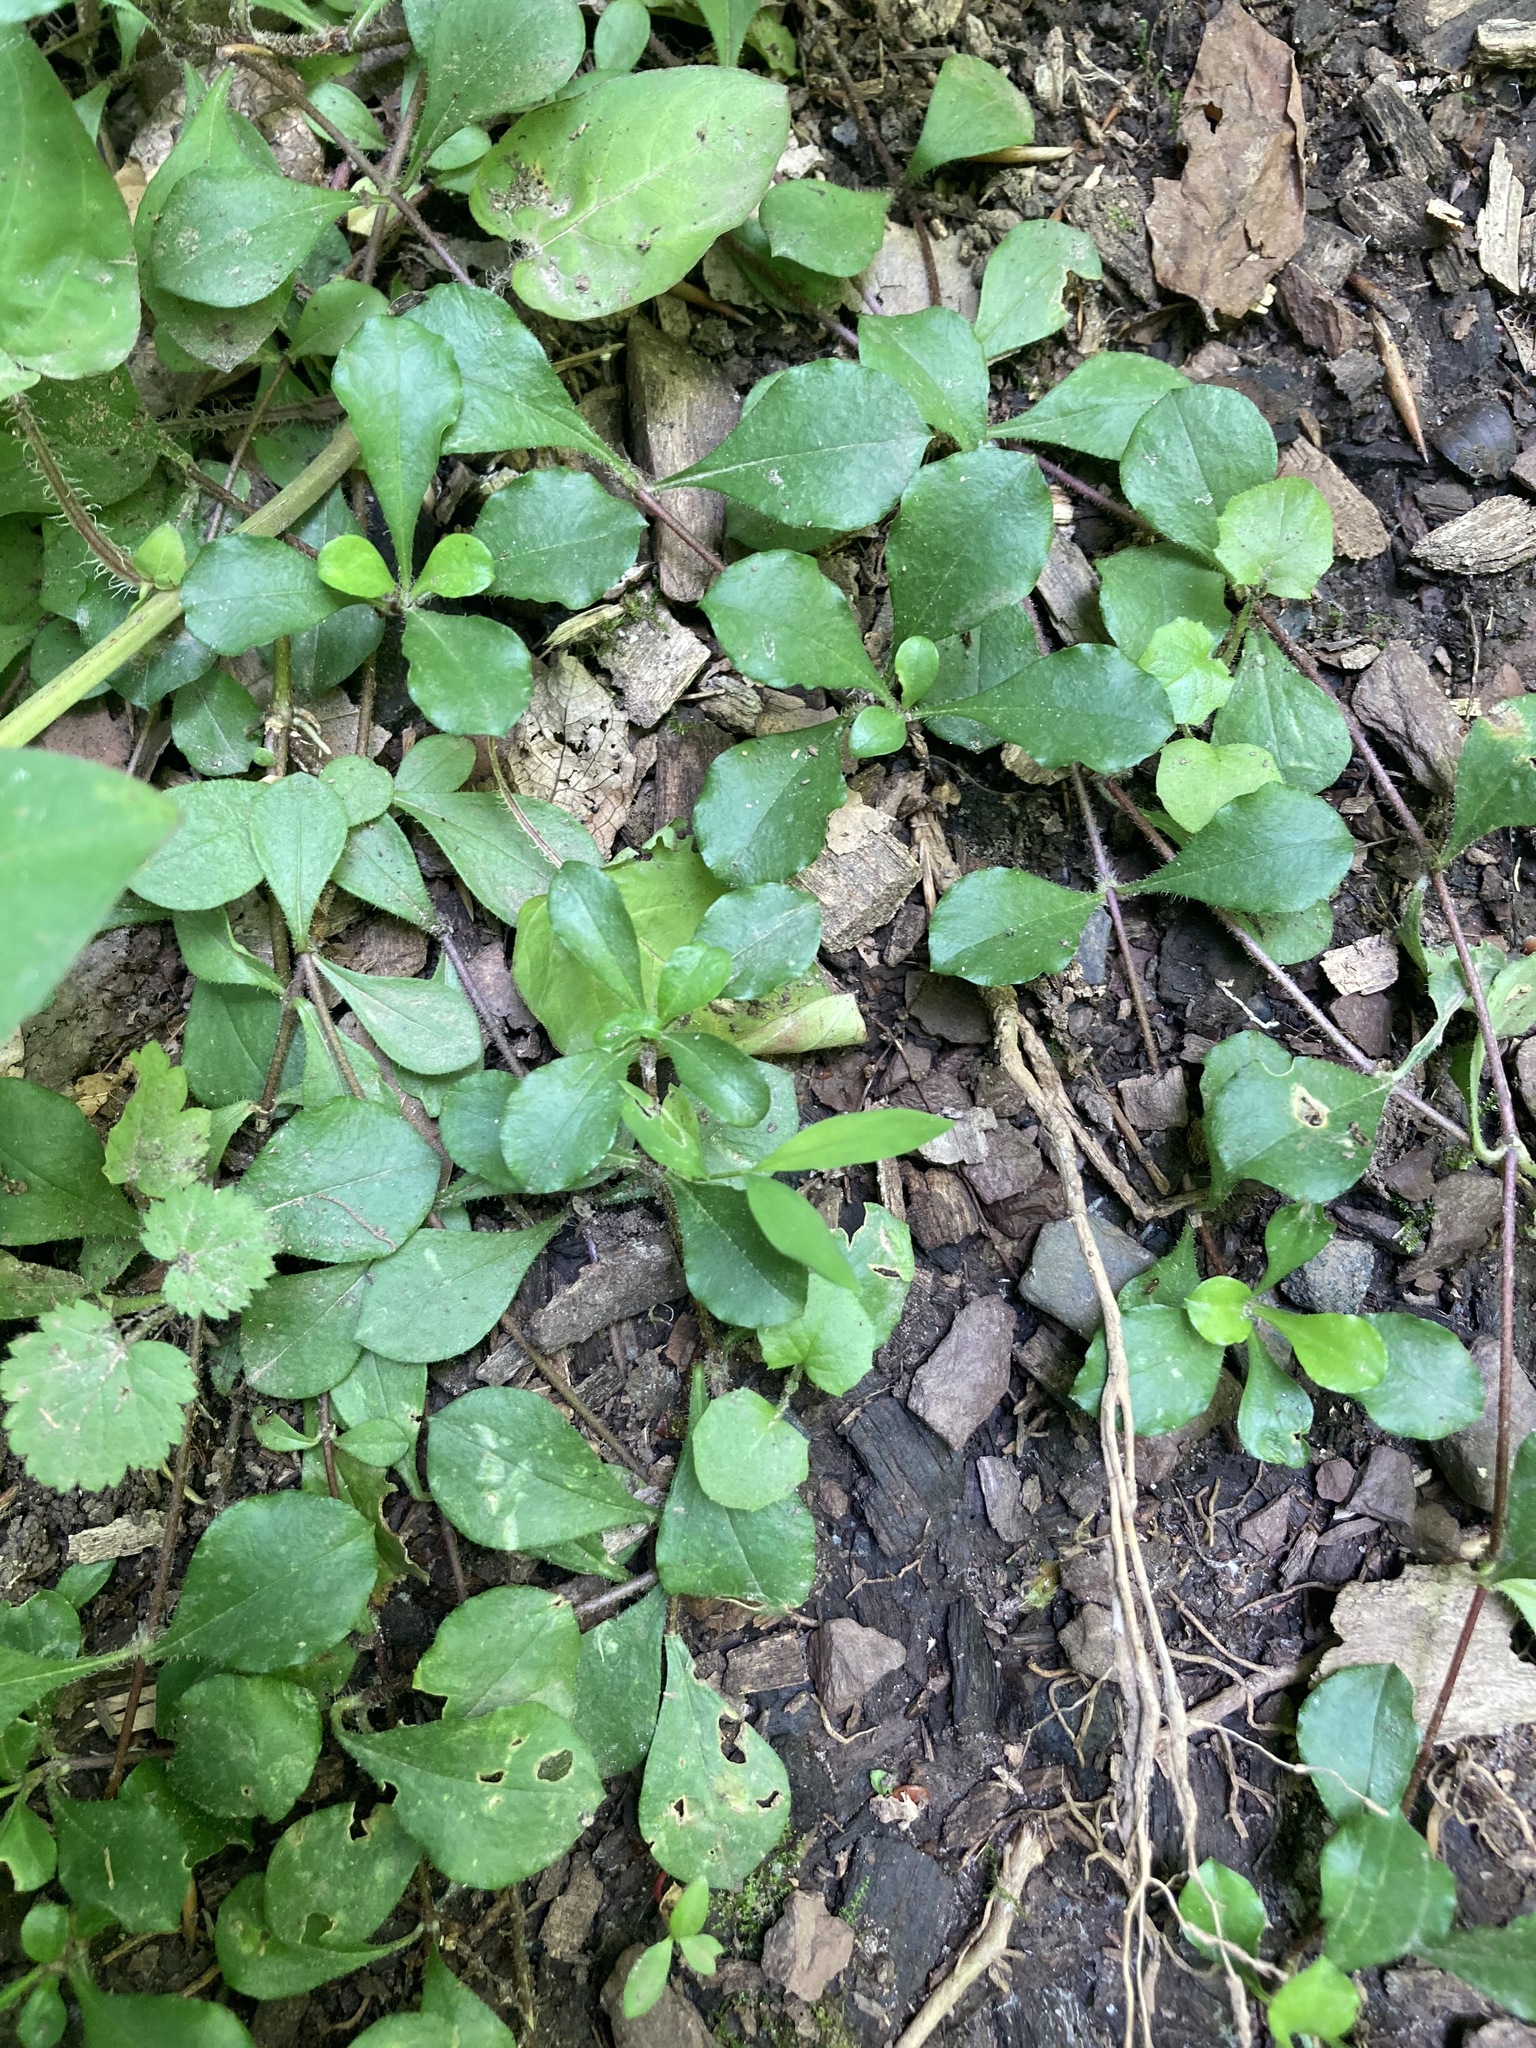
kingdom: Plantae
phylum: Tracheophyta
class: Magnoliopsida
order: Ericales
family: Polemoniaceae
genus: Phlox
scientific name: Phlox stolonifera
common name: Creeping phlox
